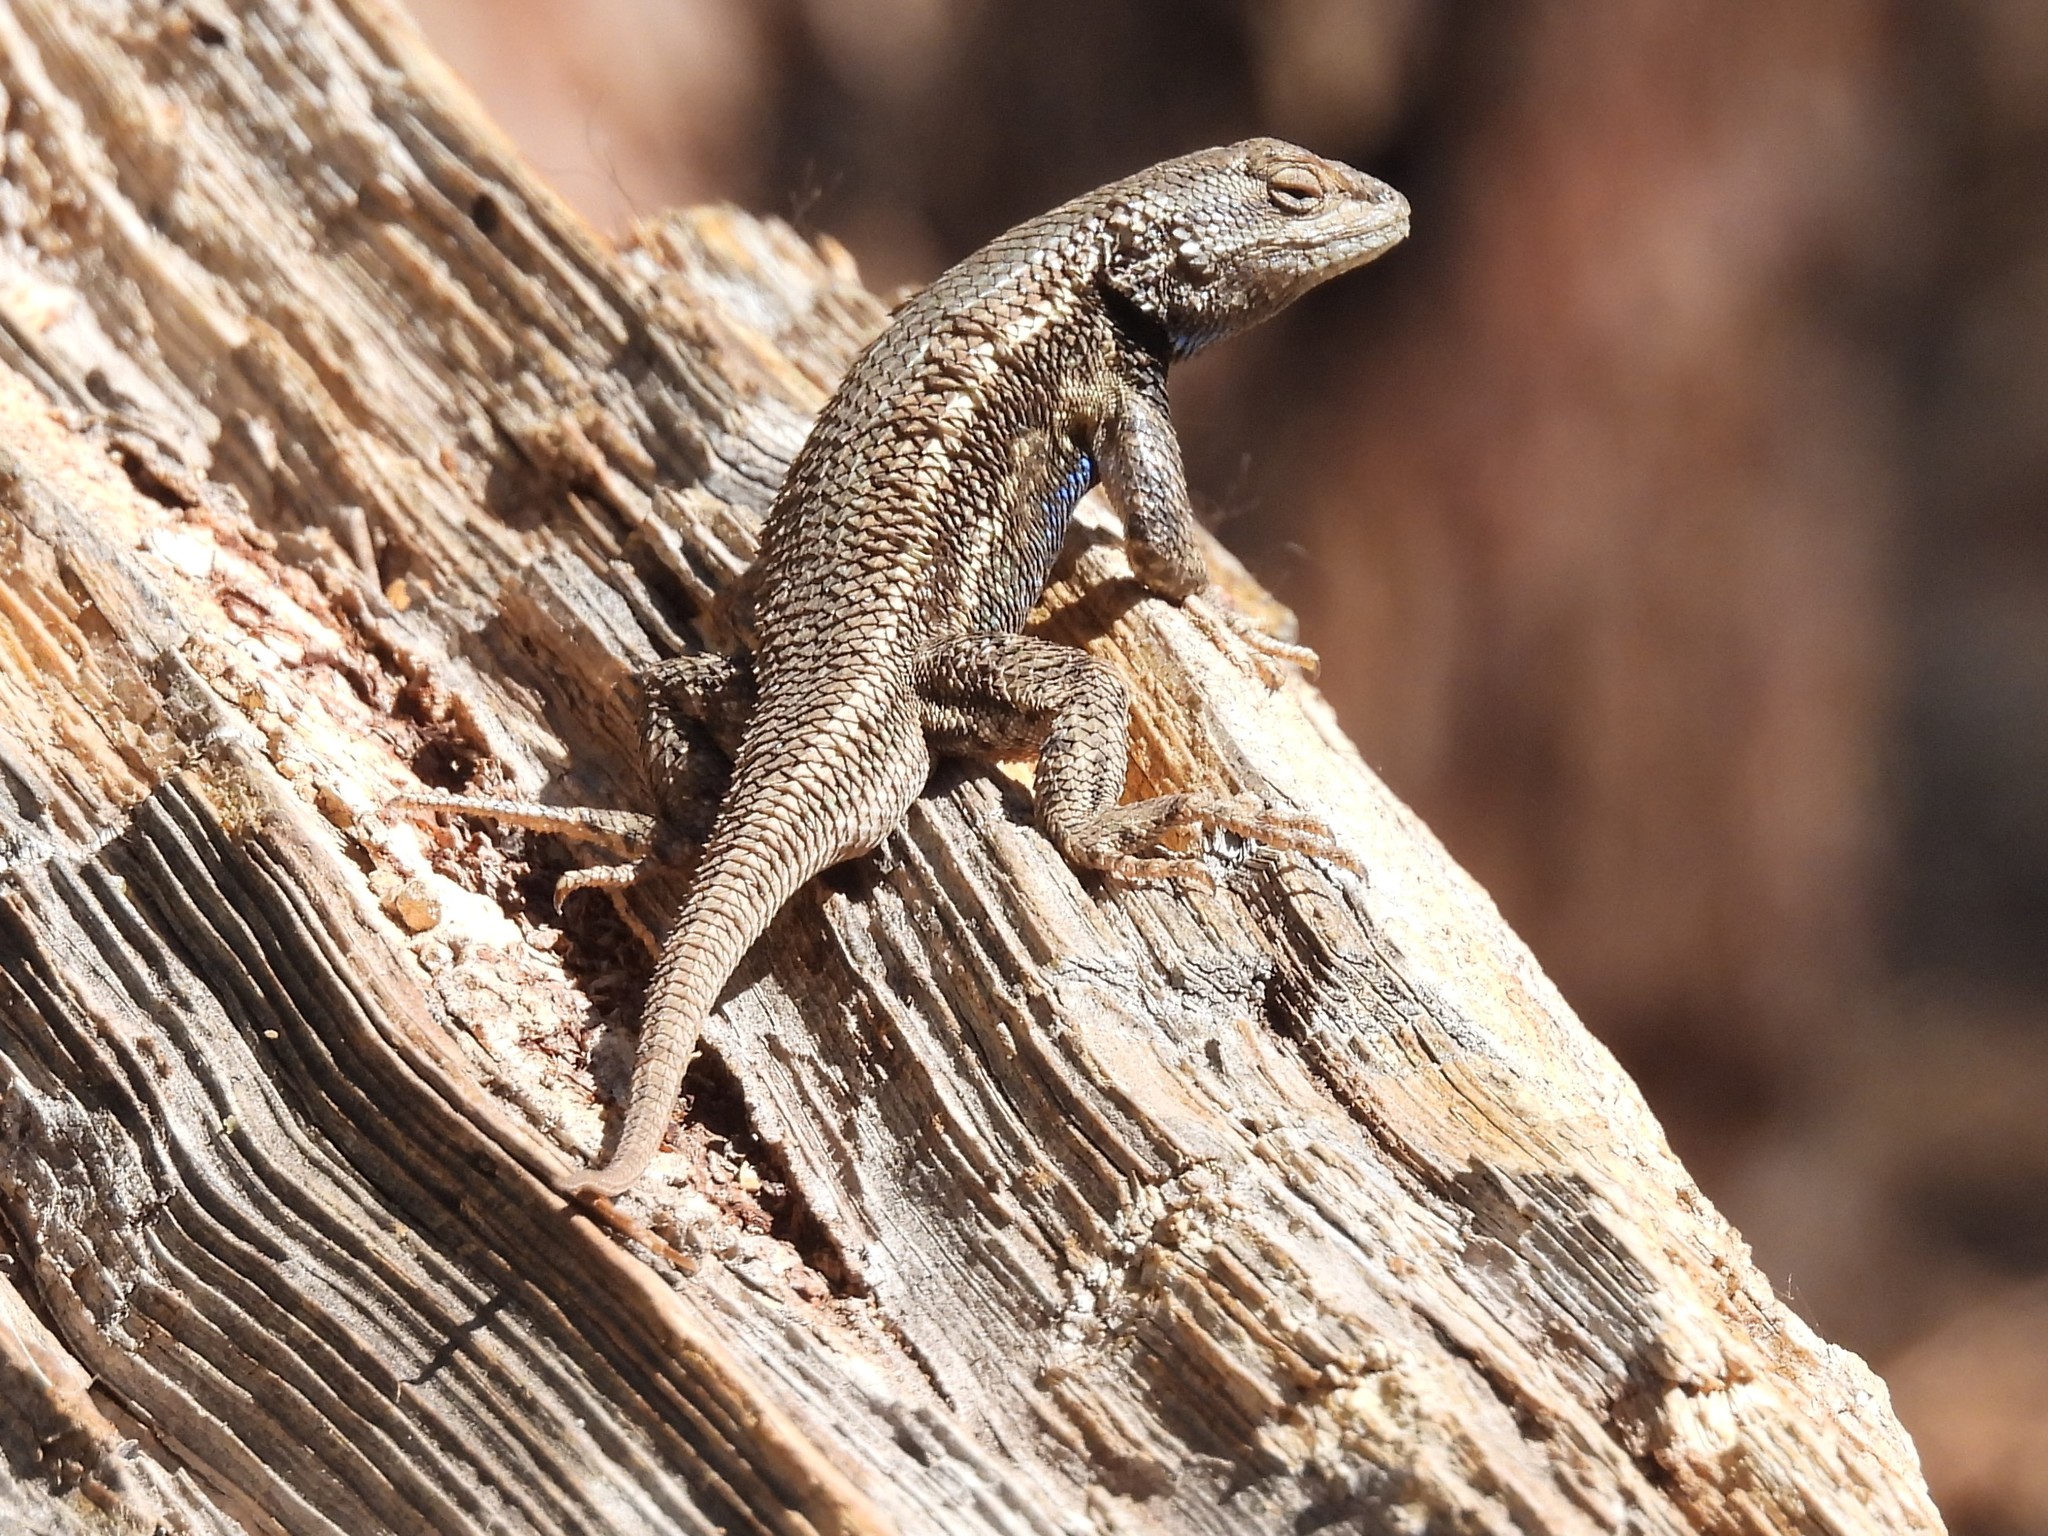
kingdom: Animalia
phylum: Chordata
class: Squamata
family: Phrynosomatidae
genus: Sceloporus
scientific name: Sceloporus tristichus
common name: Plateau fence lizard
